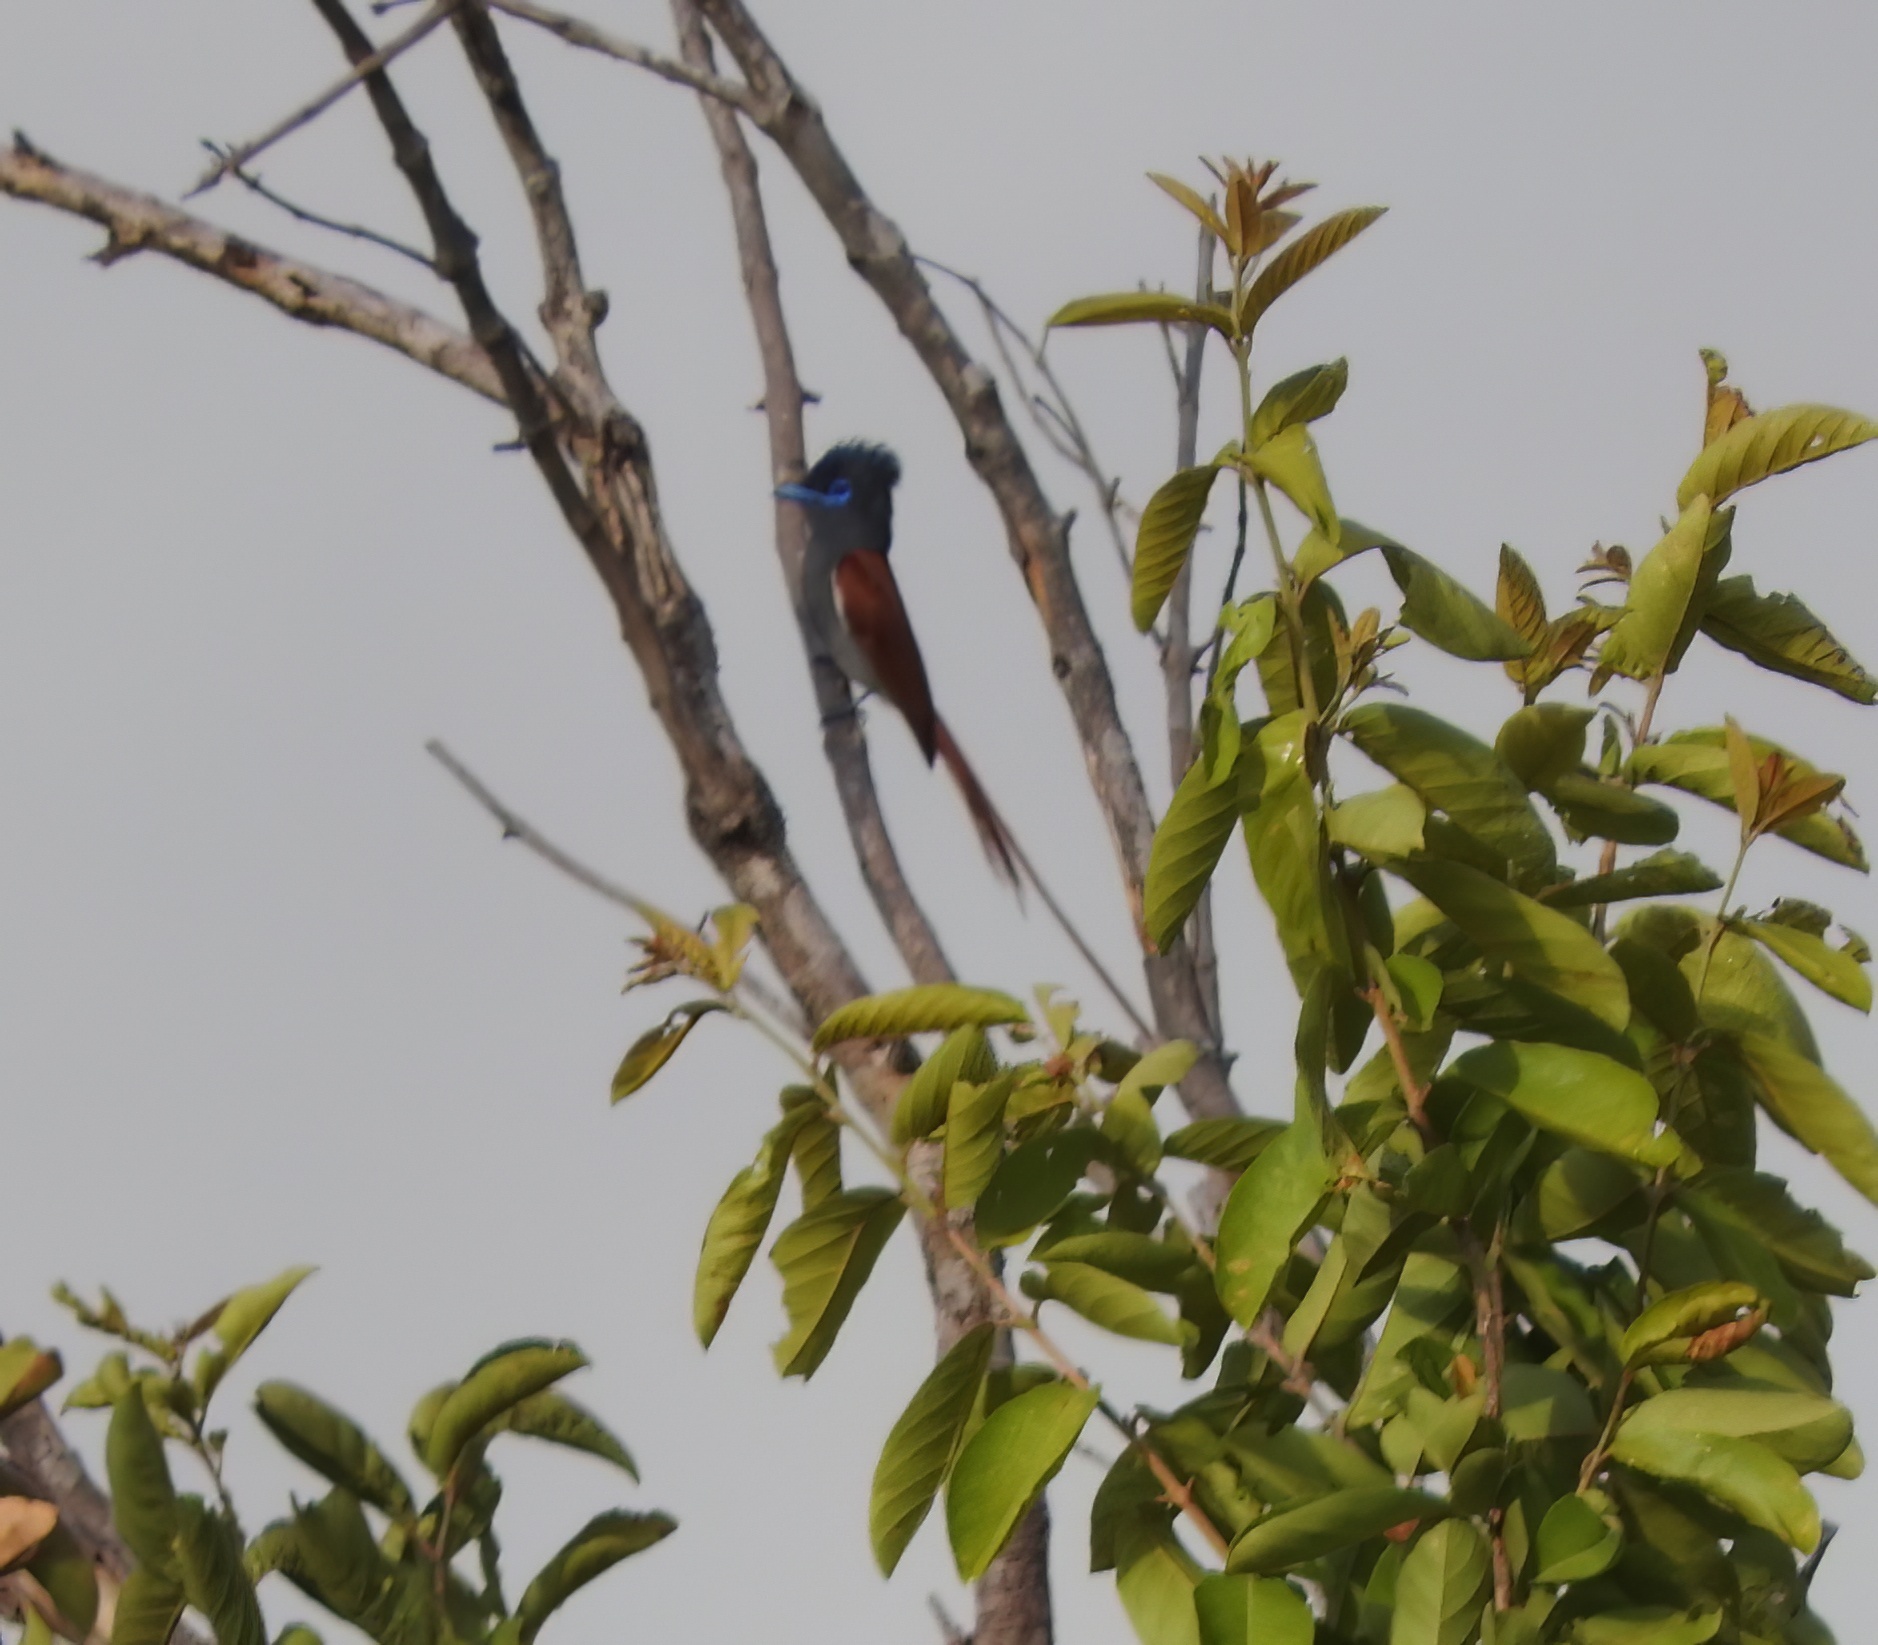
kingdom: Animalia
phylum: Chordata
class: Aves
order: Passeriformes
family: Monarchidae
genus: Terpsiphone
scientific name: Terpsiphone viridis
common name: African paradise flycatcher
